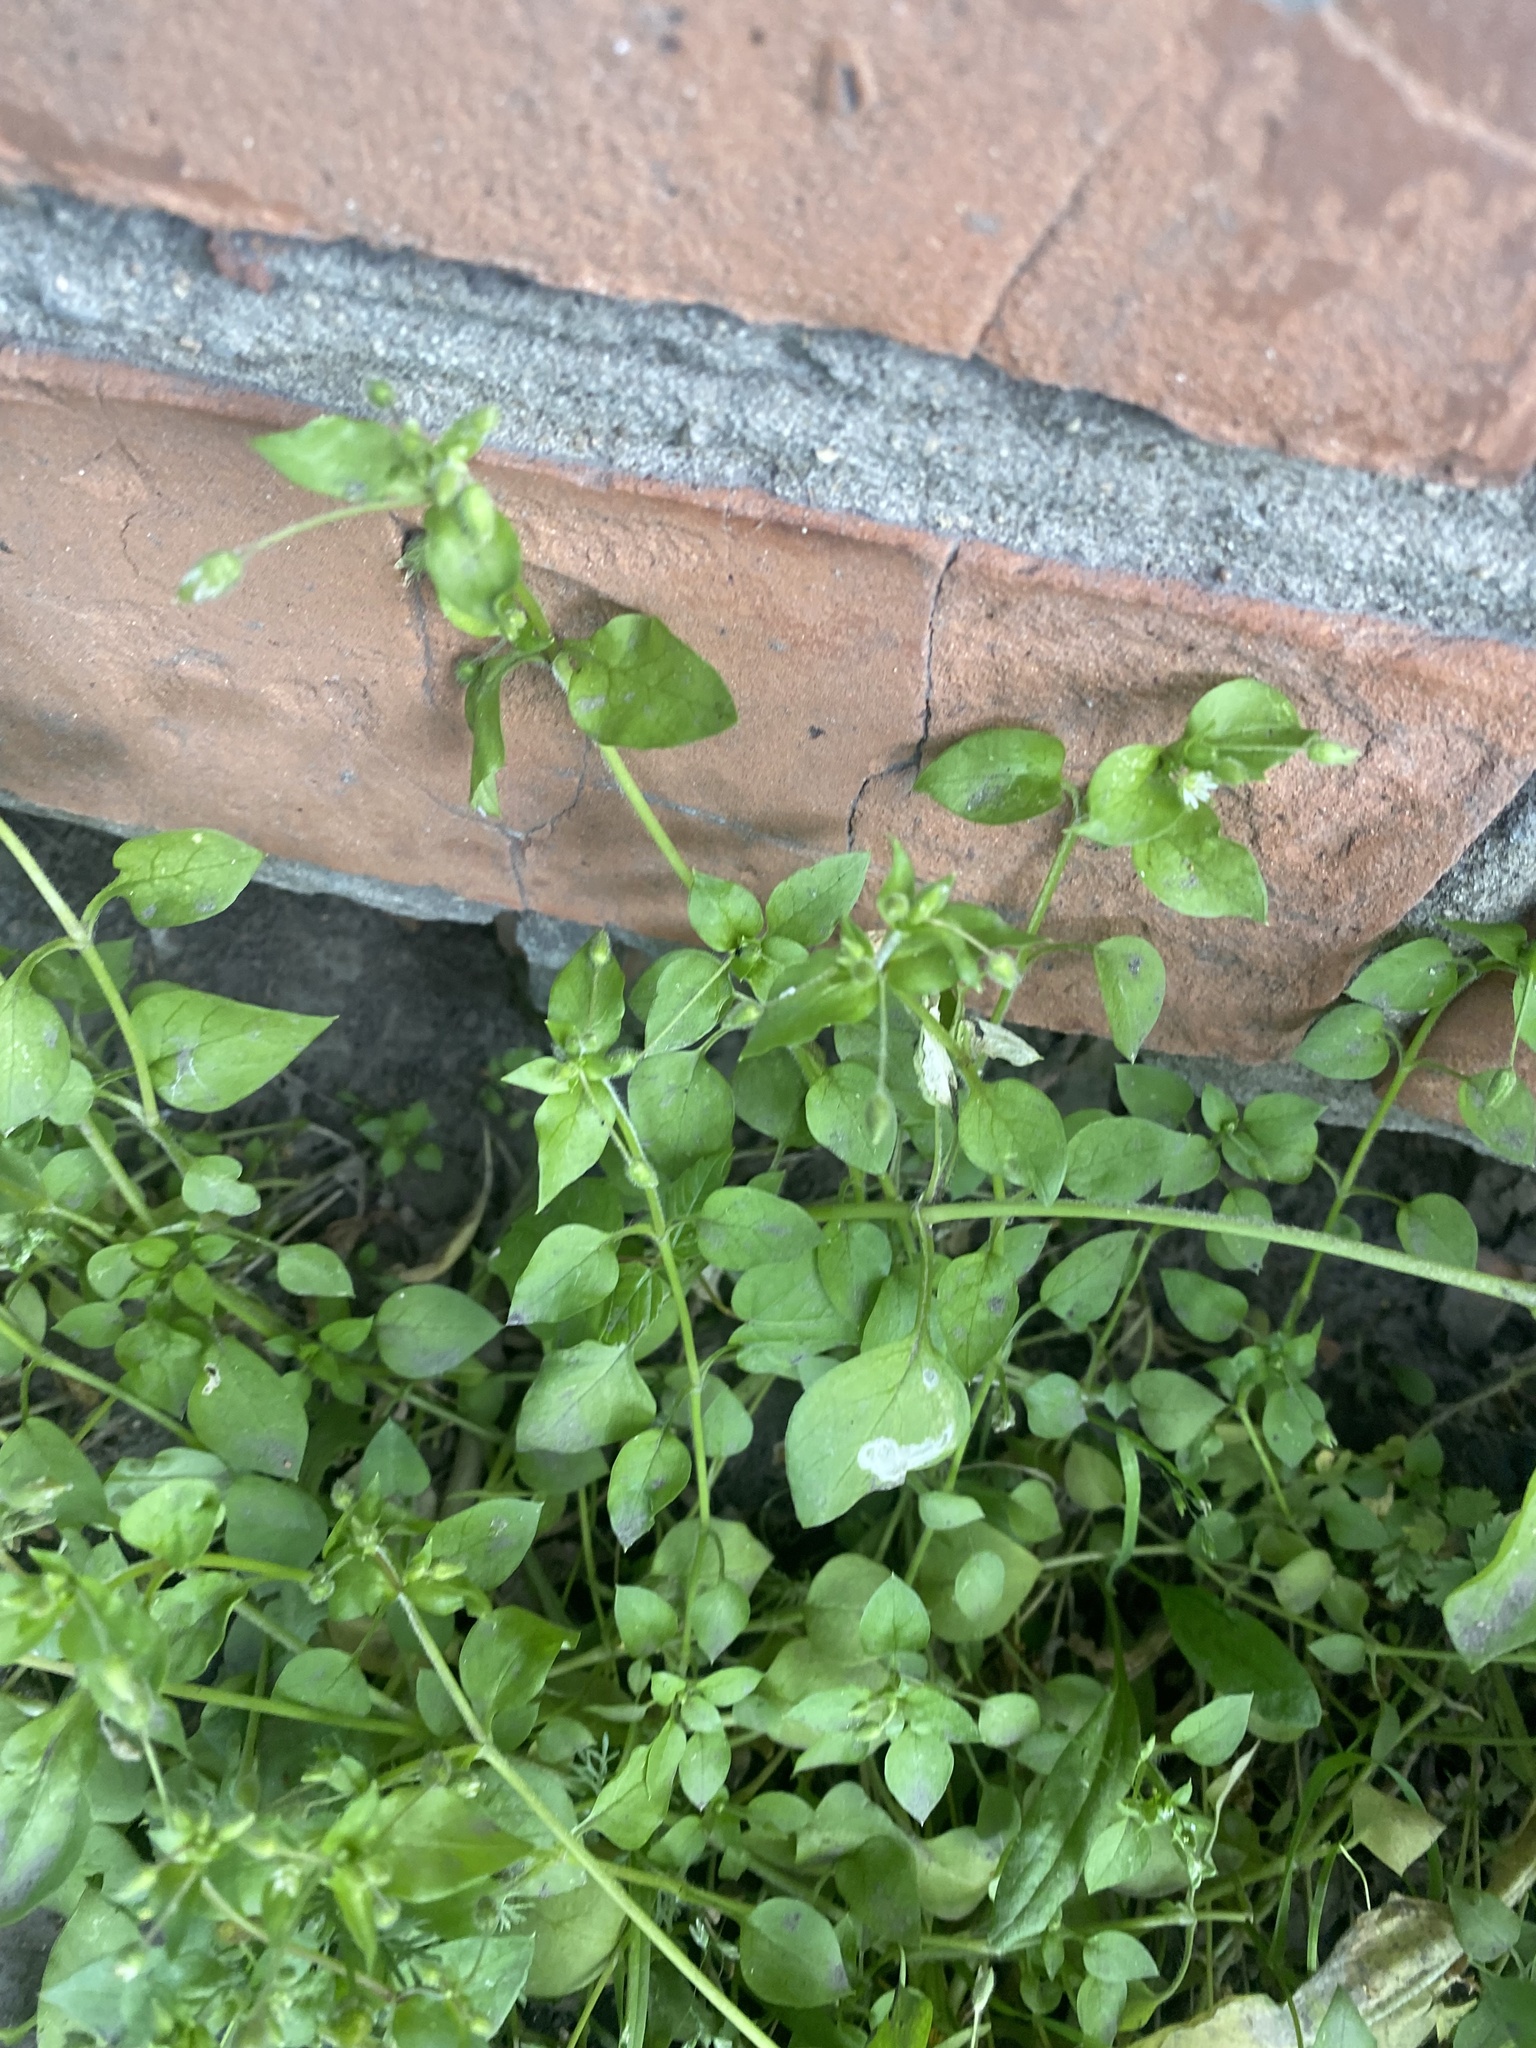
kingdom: Plantae
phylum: Tracheophyta
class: Magnoliopsida
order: Caryophyllales
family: Caryophyllaceae
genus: Stellaria
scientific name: Stellaria media
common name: Common chickweed
